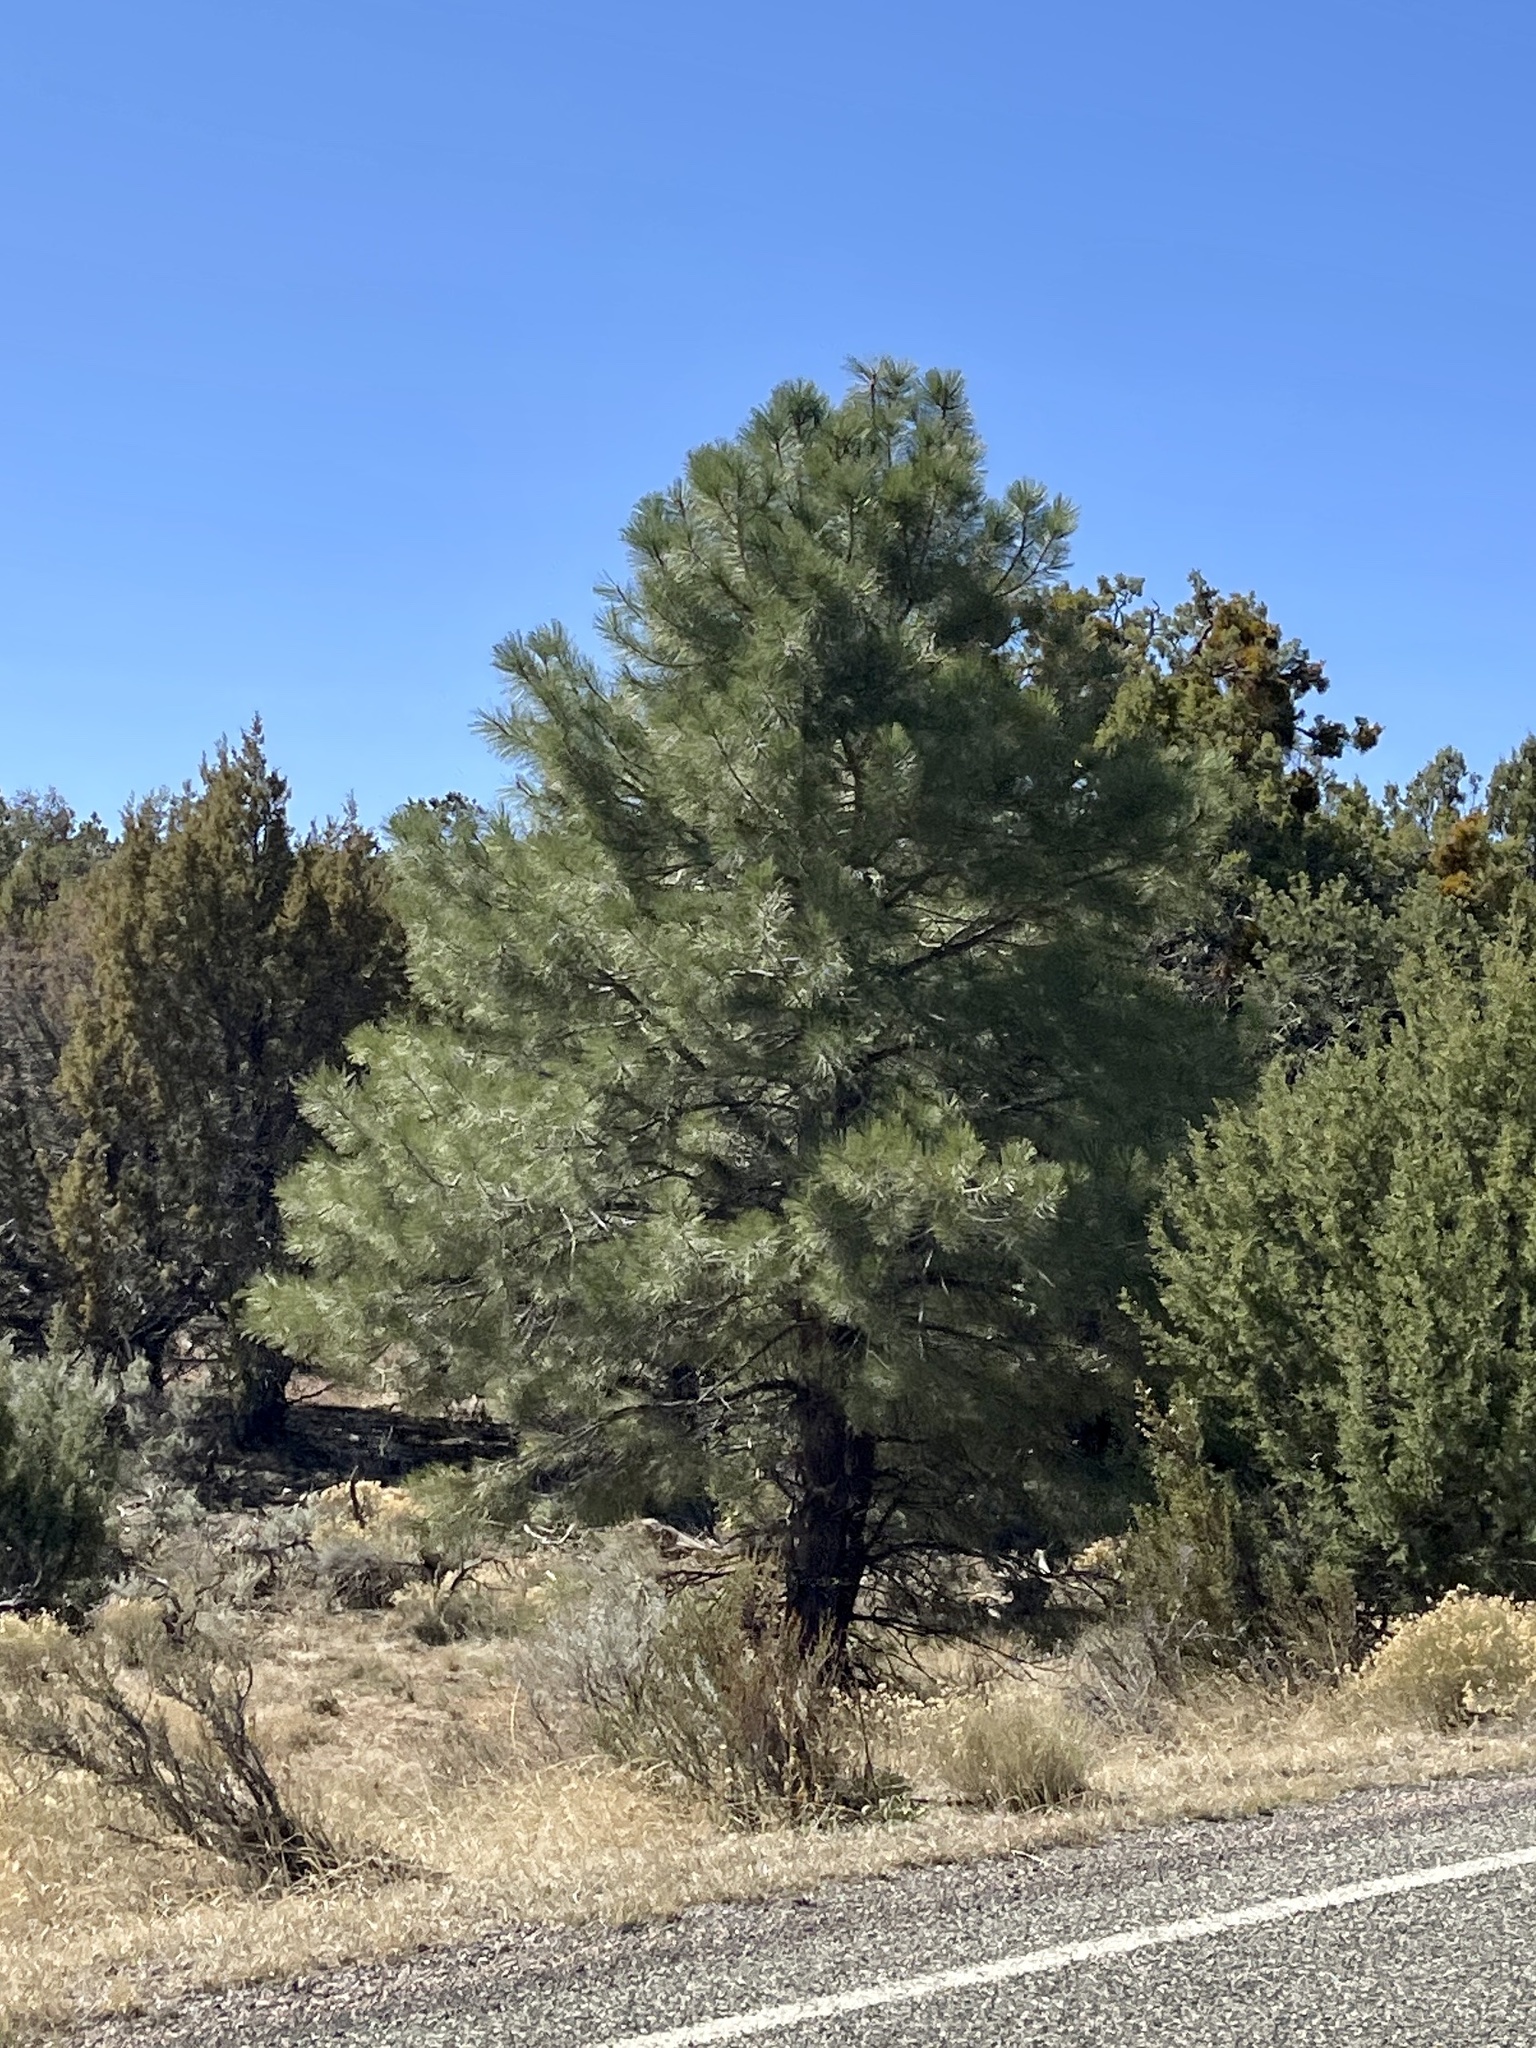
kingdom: Plantae
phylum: Tracheophyta
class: Pinopsida
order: Pinales
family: Pinaceae
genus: Pinus
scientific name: Pinus ponderosa
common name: Western yellow-pine
